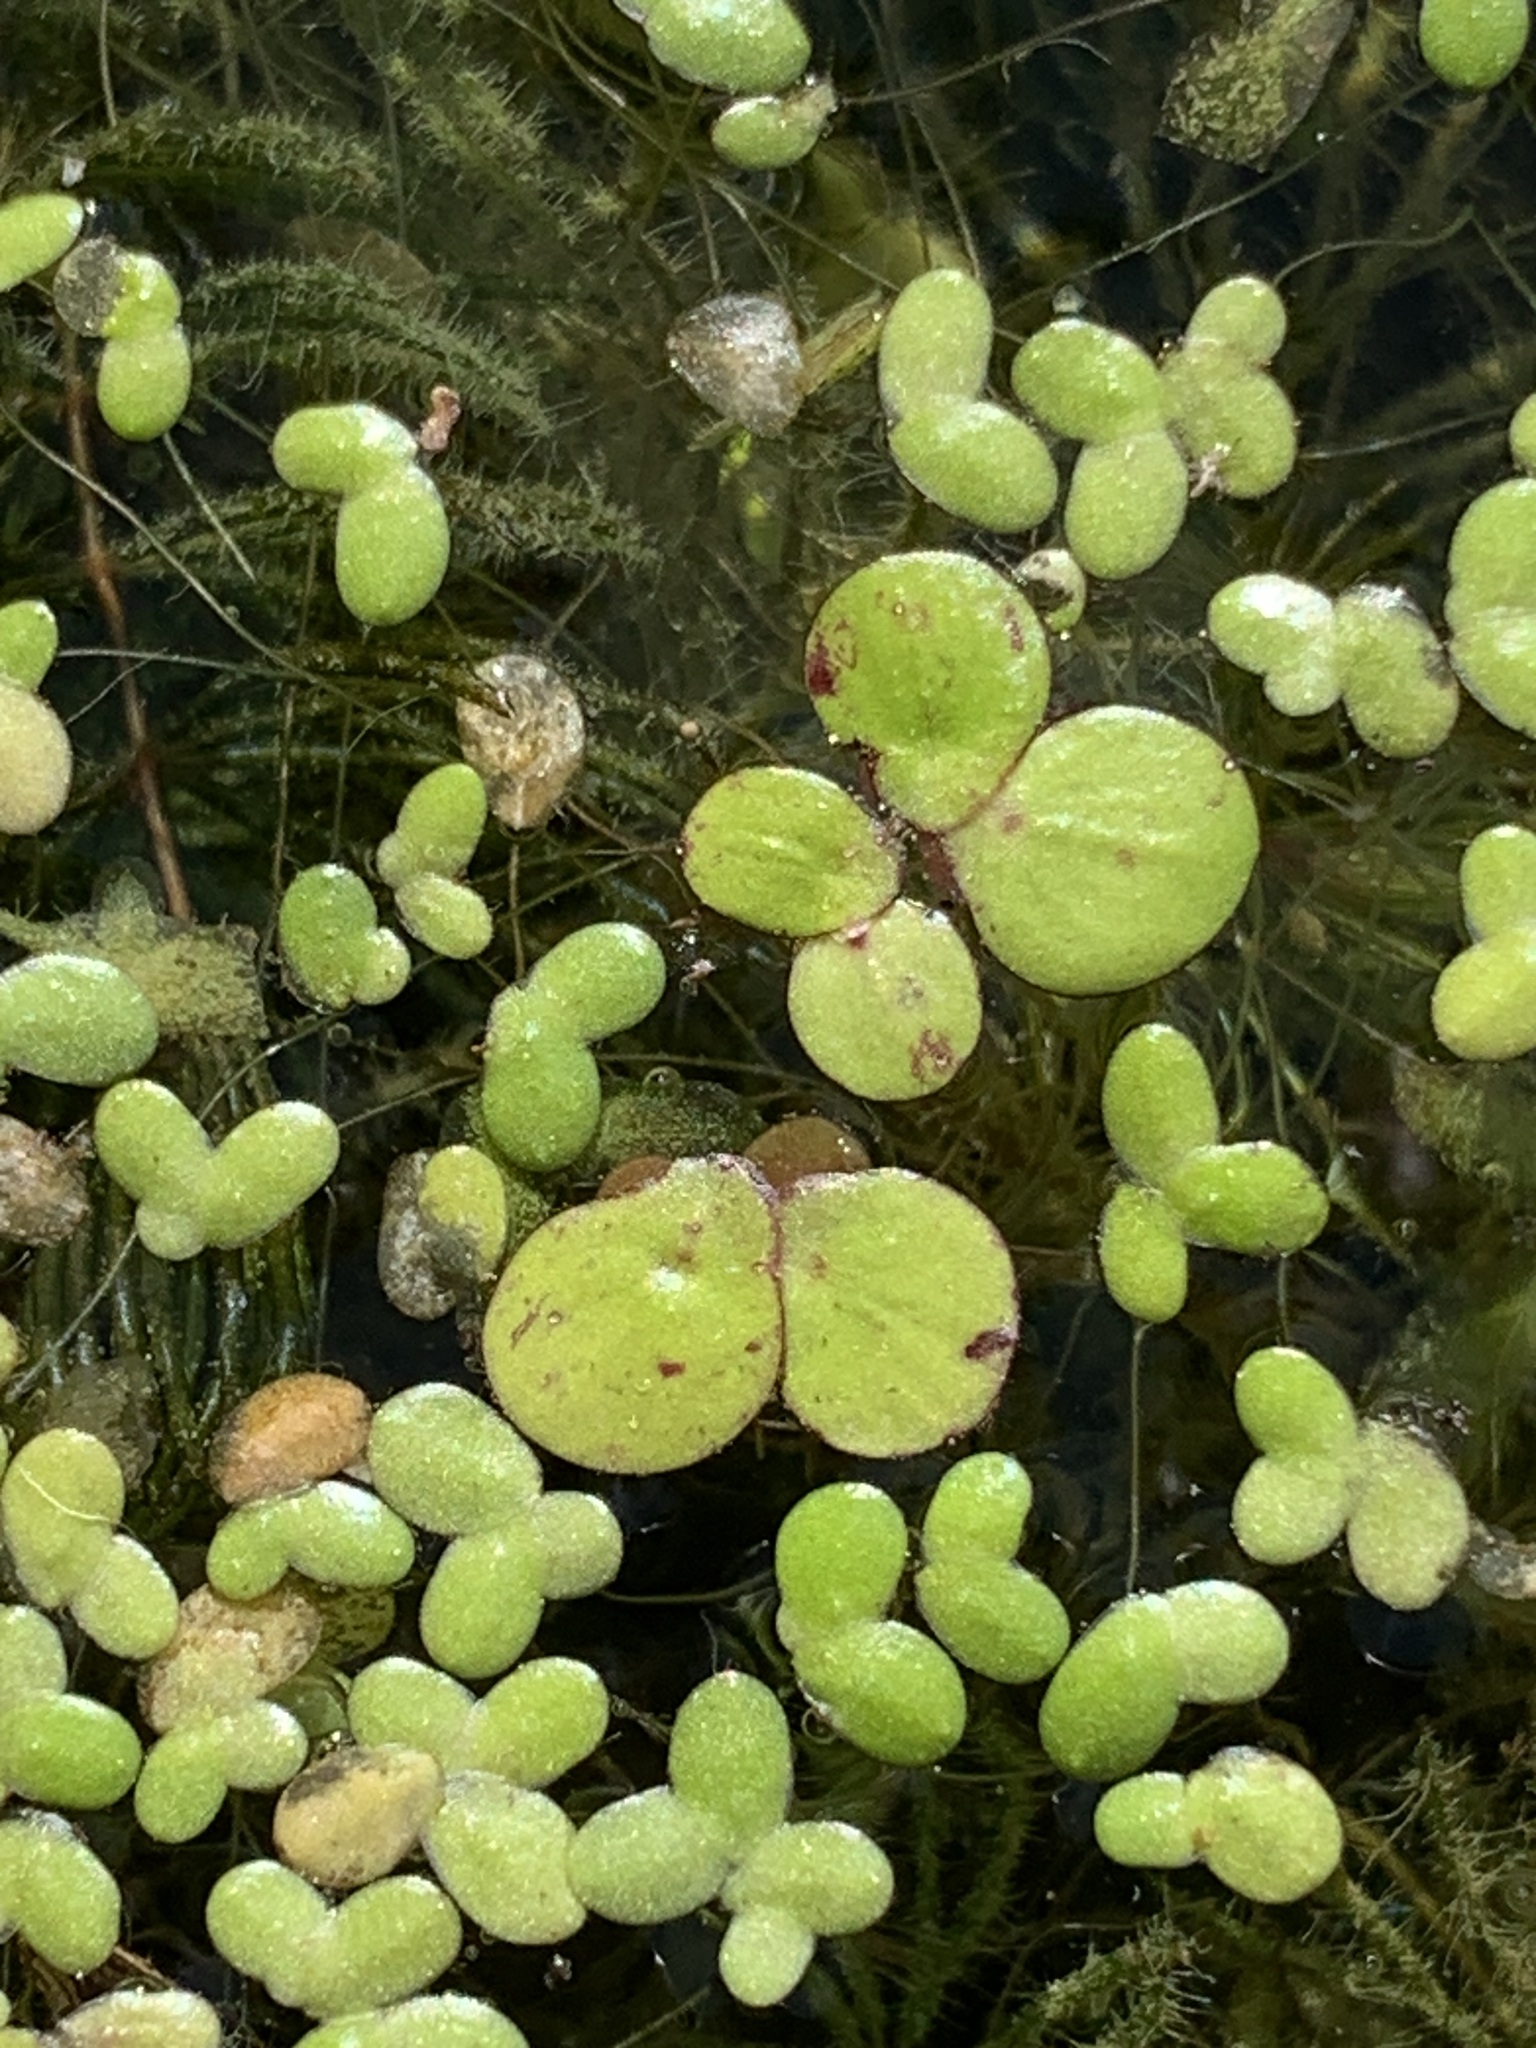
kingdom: Plantae
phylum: Tracheophyta
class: Liliopsida
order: Alismatales
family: Araceae
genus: Spirodela
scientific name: Spirodela polyrhiza
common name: Great duckweed
